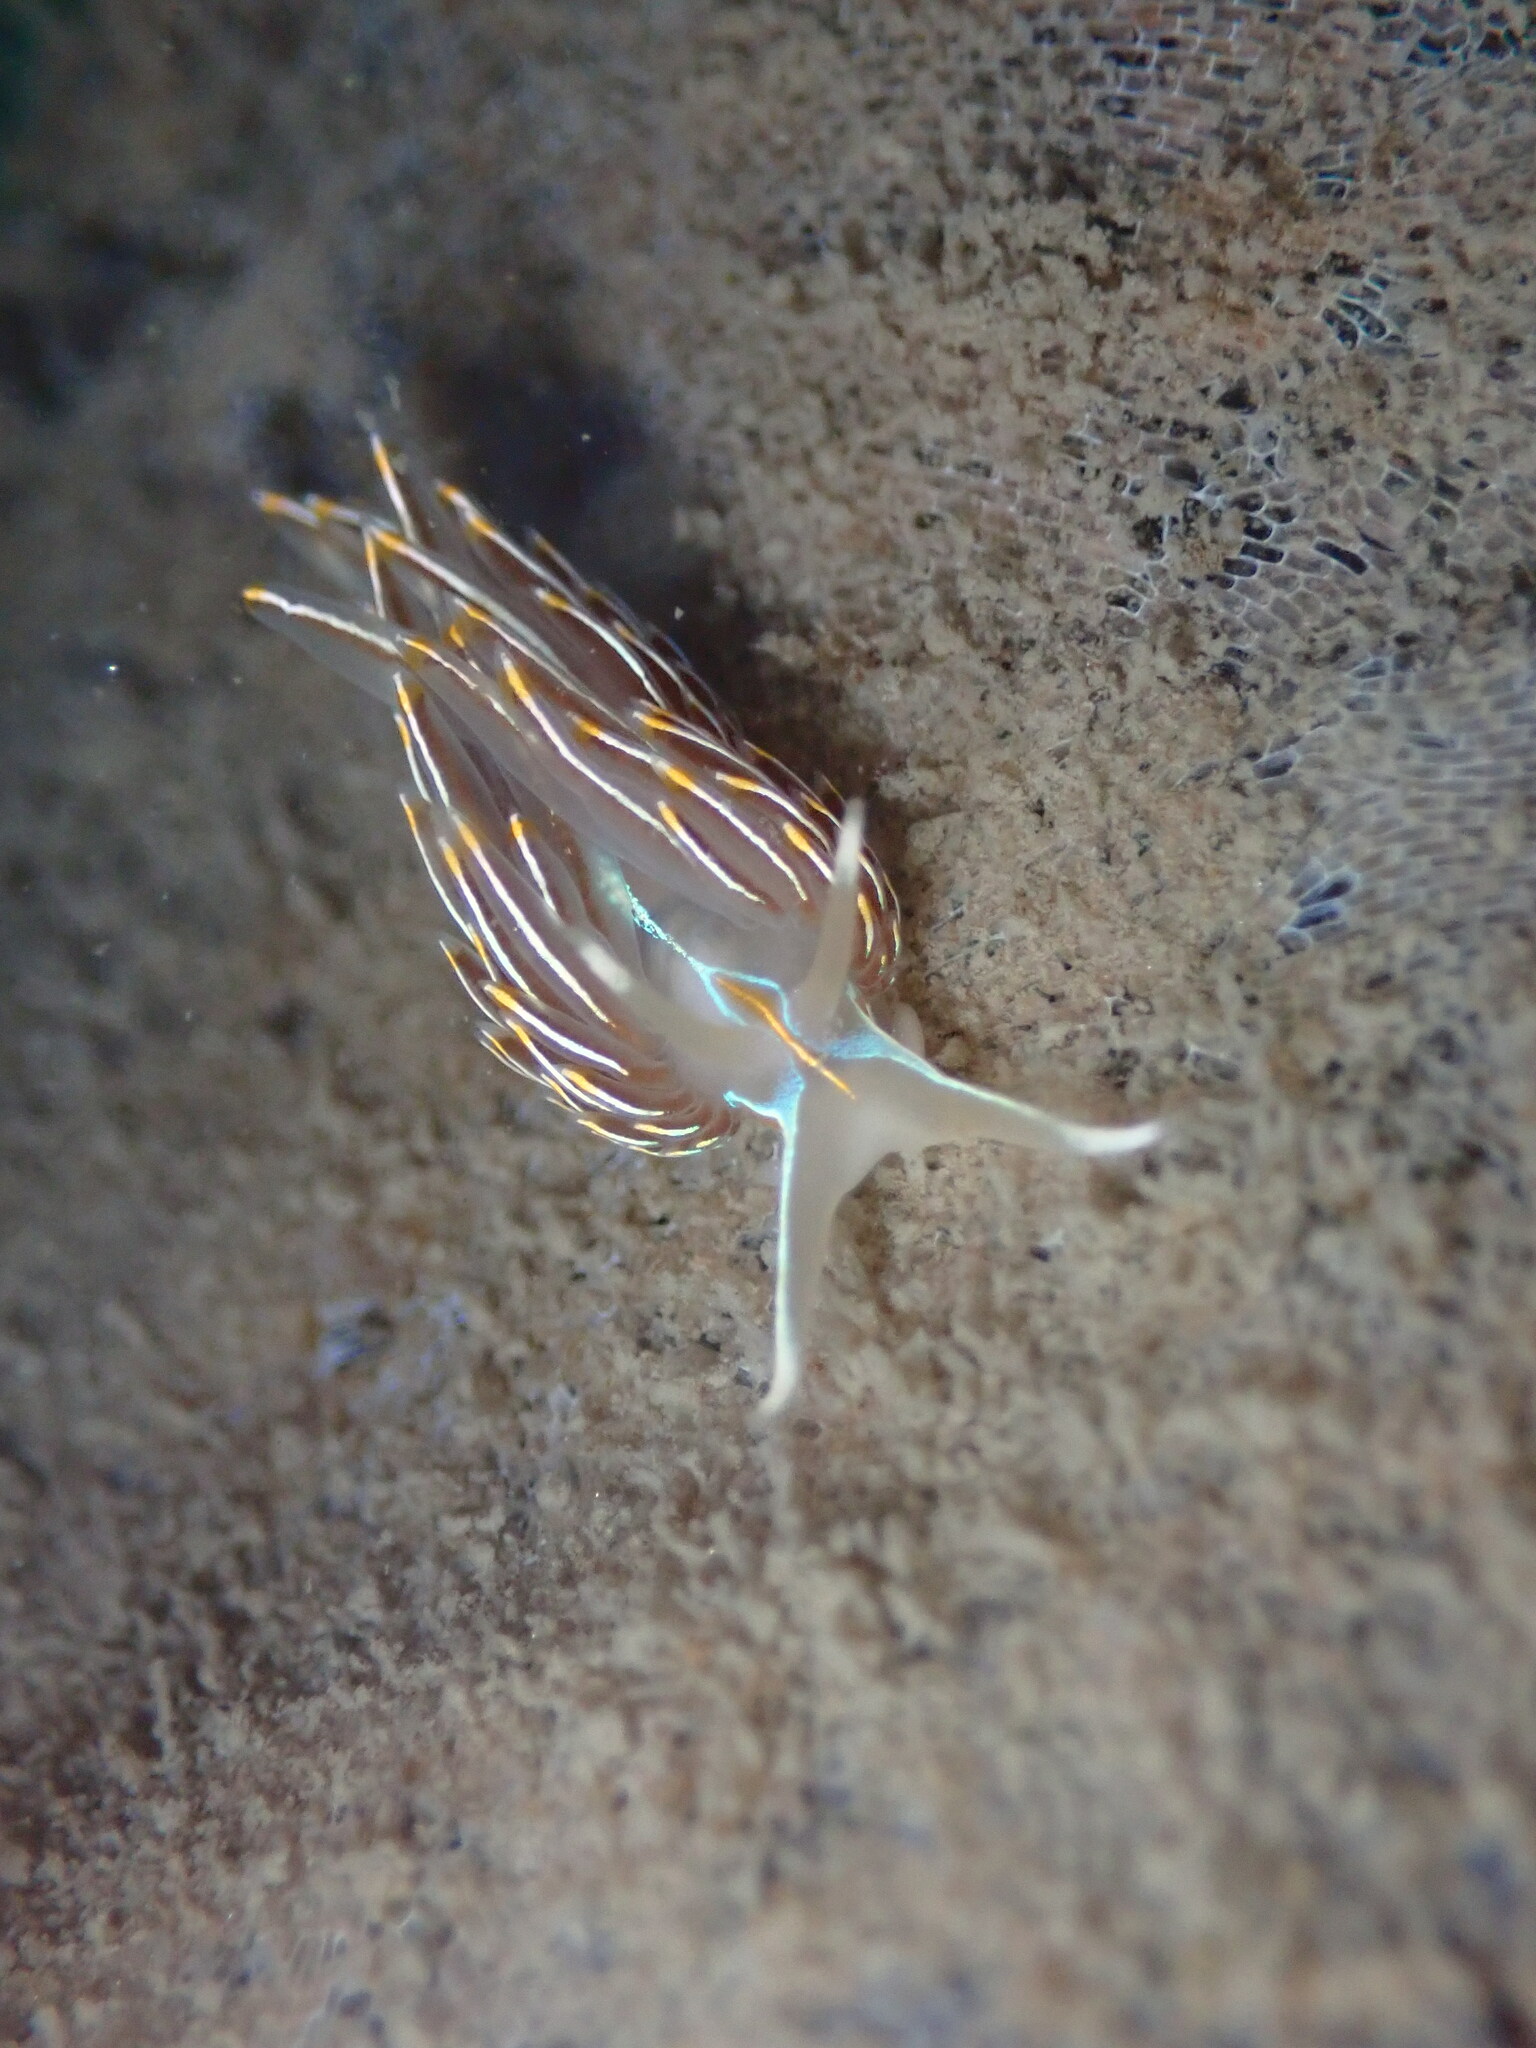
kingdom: Animalia
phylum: Mollusca
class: Gastropoda
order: Nudibranchia
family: Myrrhinidae
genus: Hermissenda
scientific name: Hermissenda crassicornis
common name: Hermissenda
